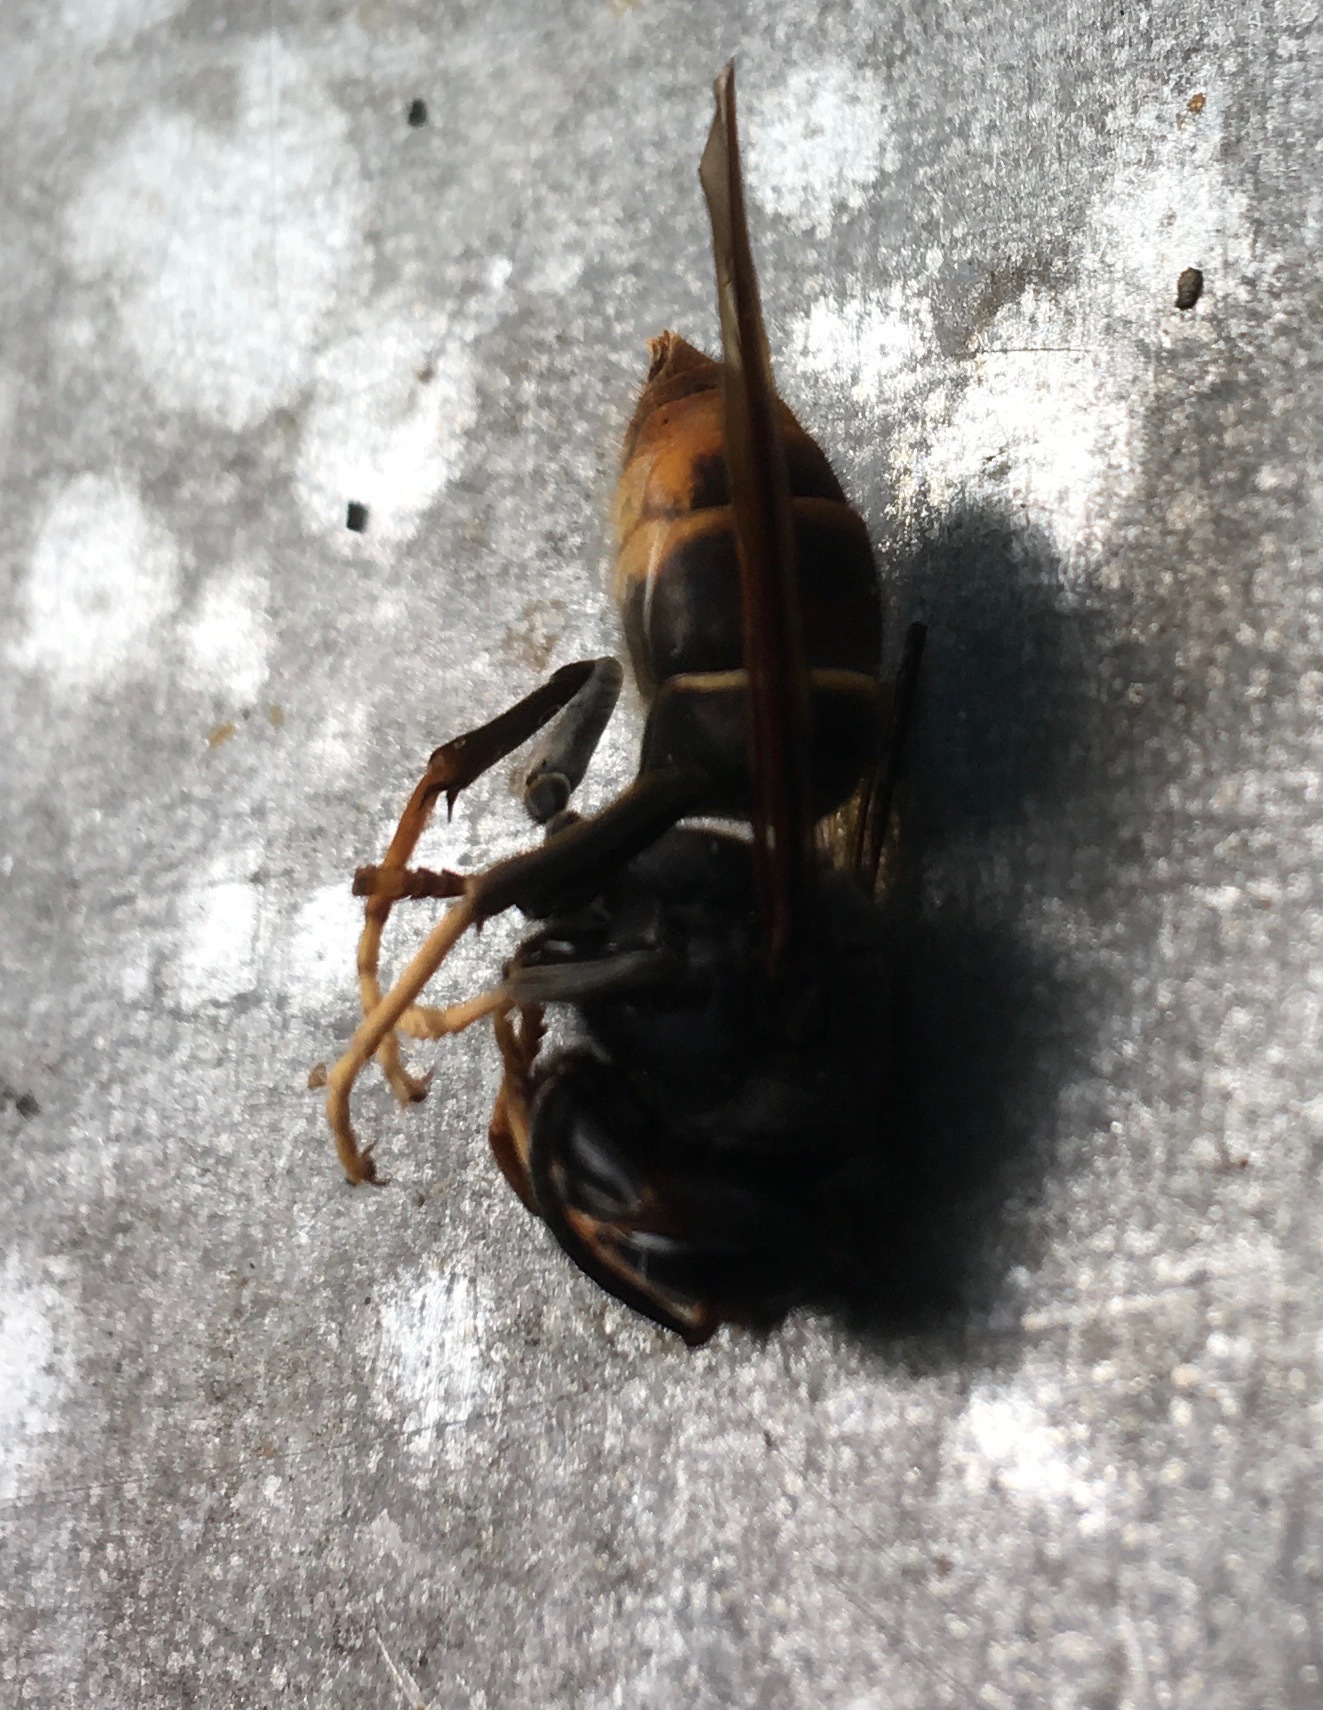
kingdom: Animalia
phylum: Arthropoda
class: Insecta
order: Hymenoptera
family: Vespidae
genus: Vespa
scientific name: Vespa velutina
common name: Asian hornet
